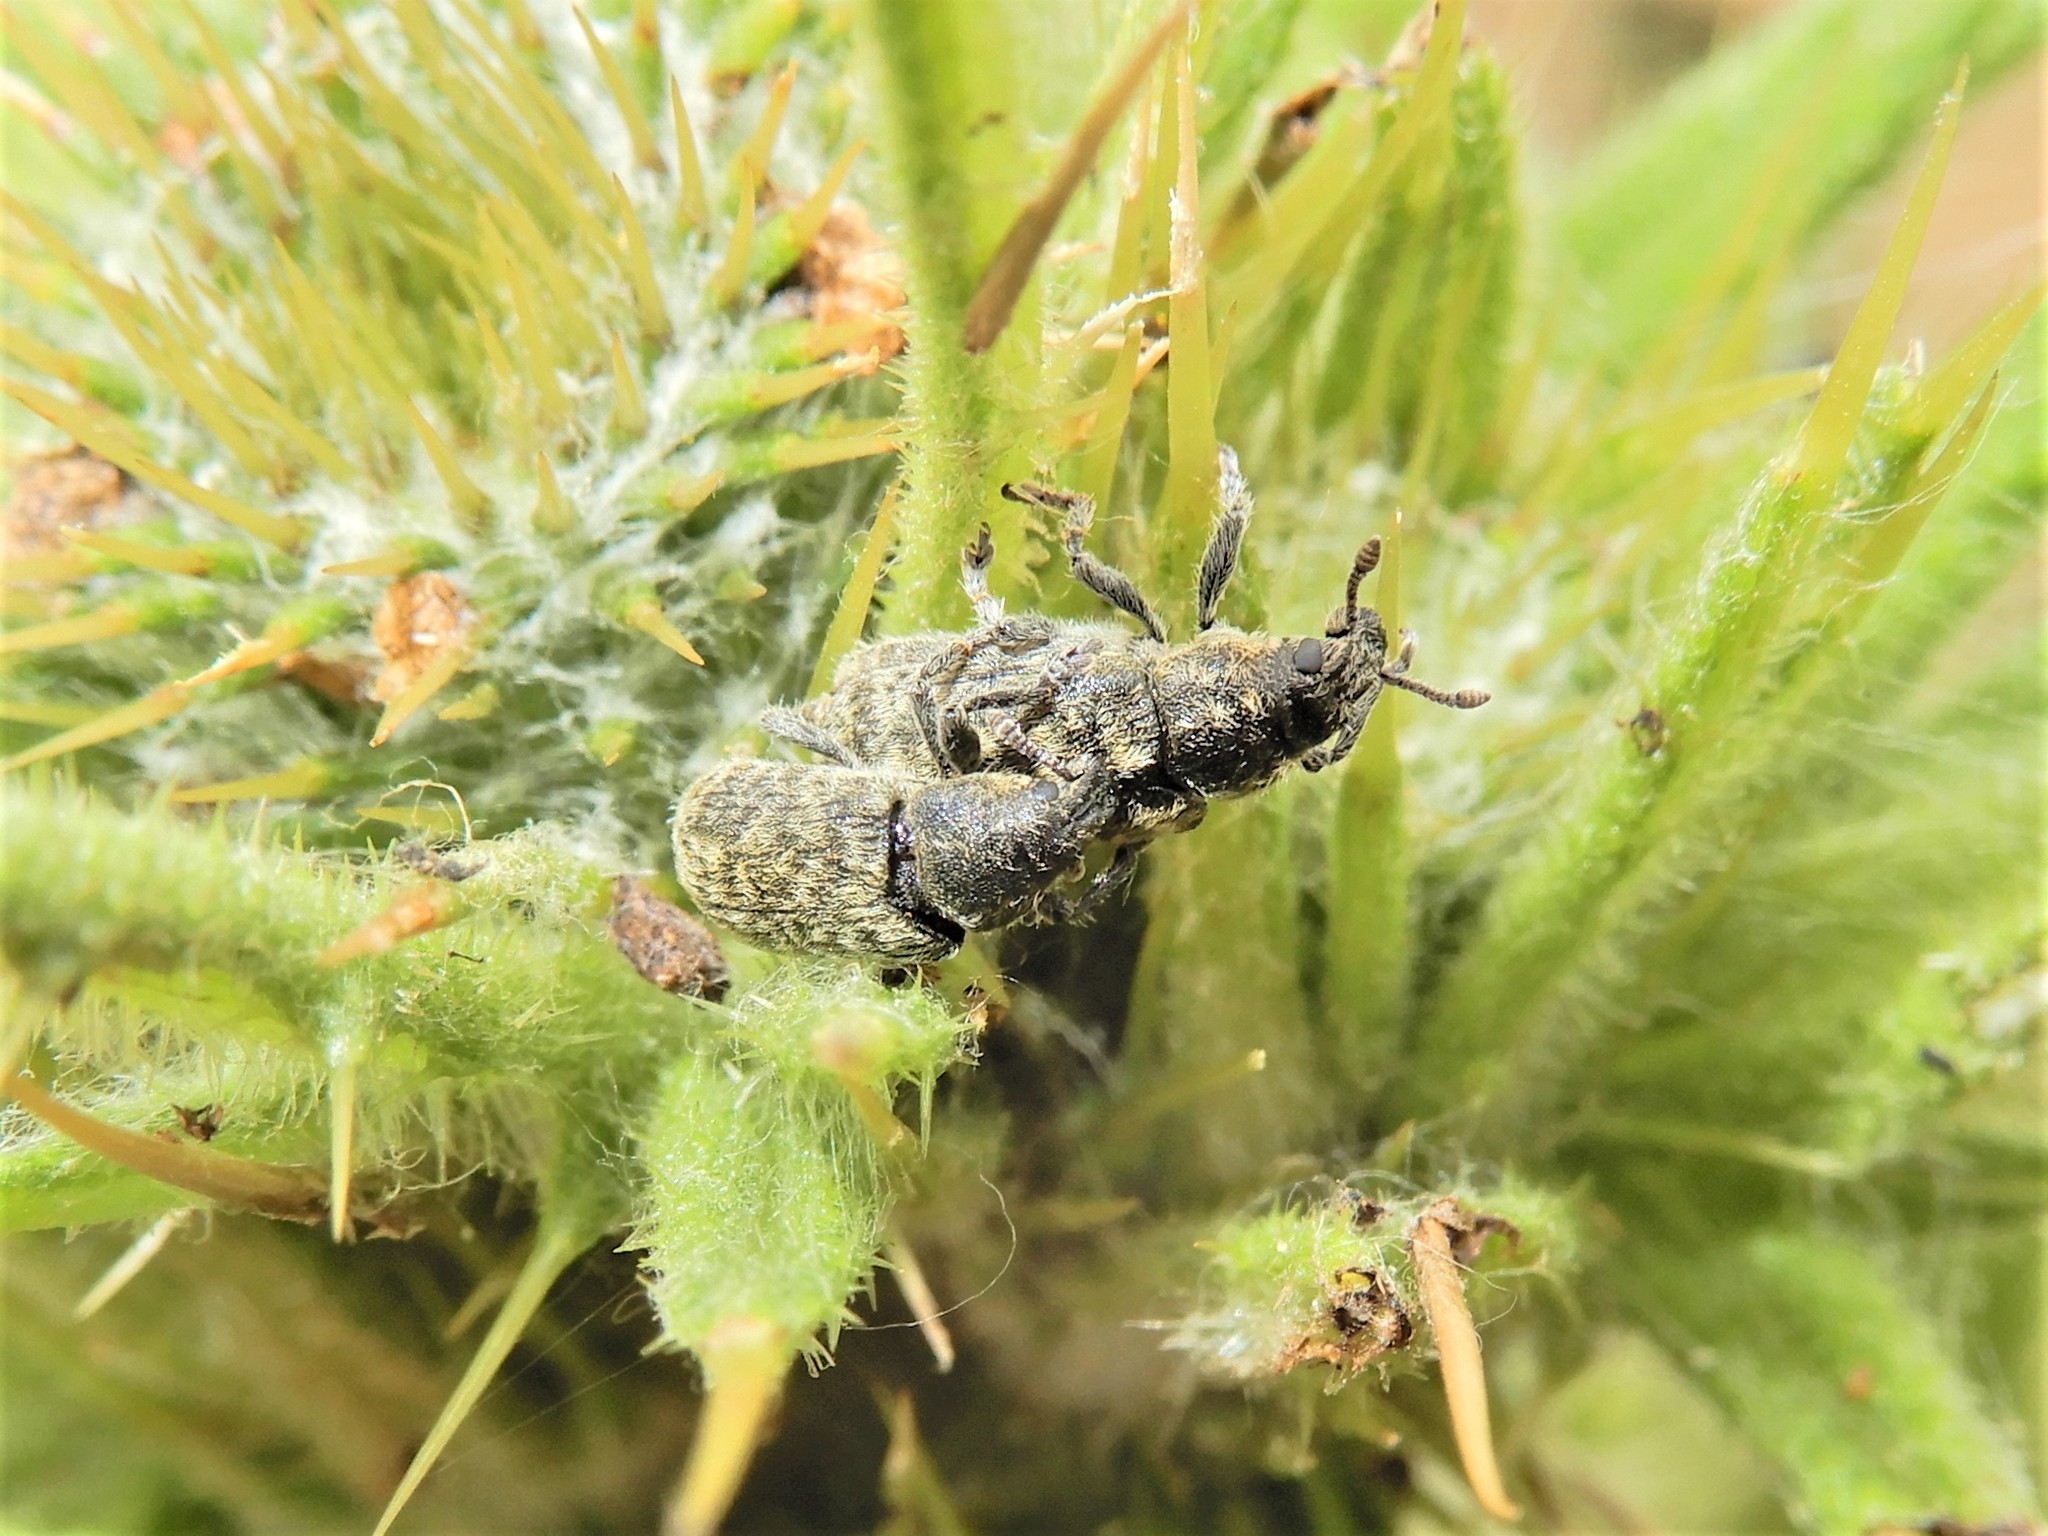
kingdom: Animalia
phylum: Arthropoda
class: Insecta
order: Coleoptera
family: Curculionidae
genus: Rhinocyllus
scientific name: Rhinocyllus conicus
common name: Weevil
